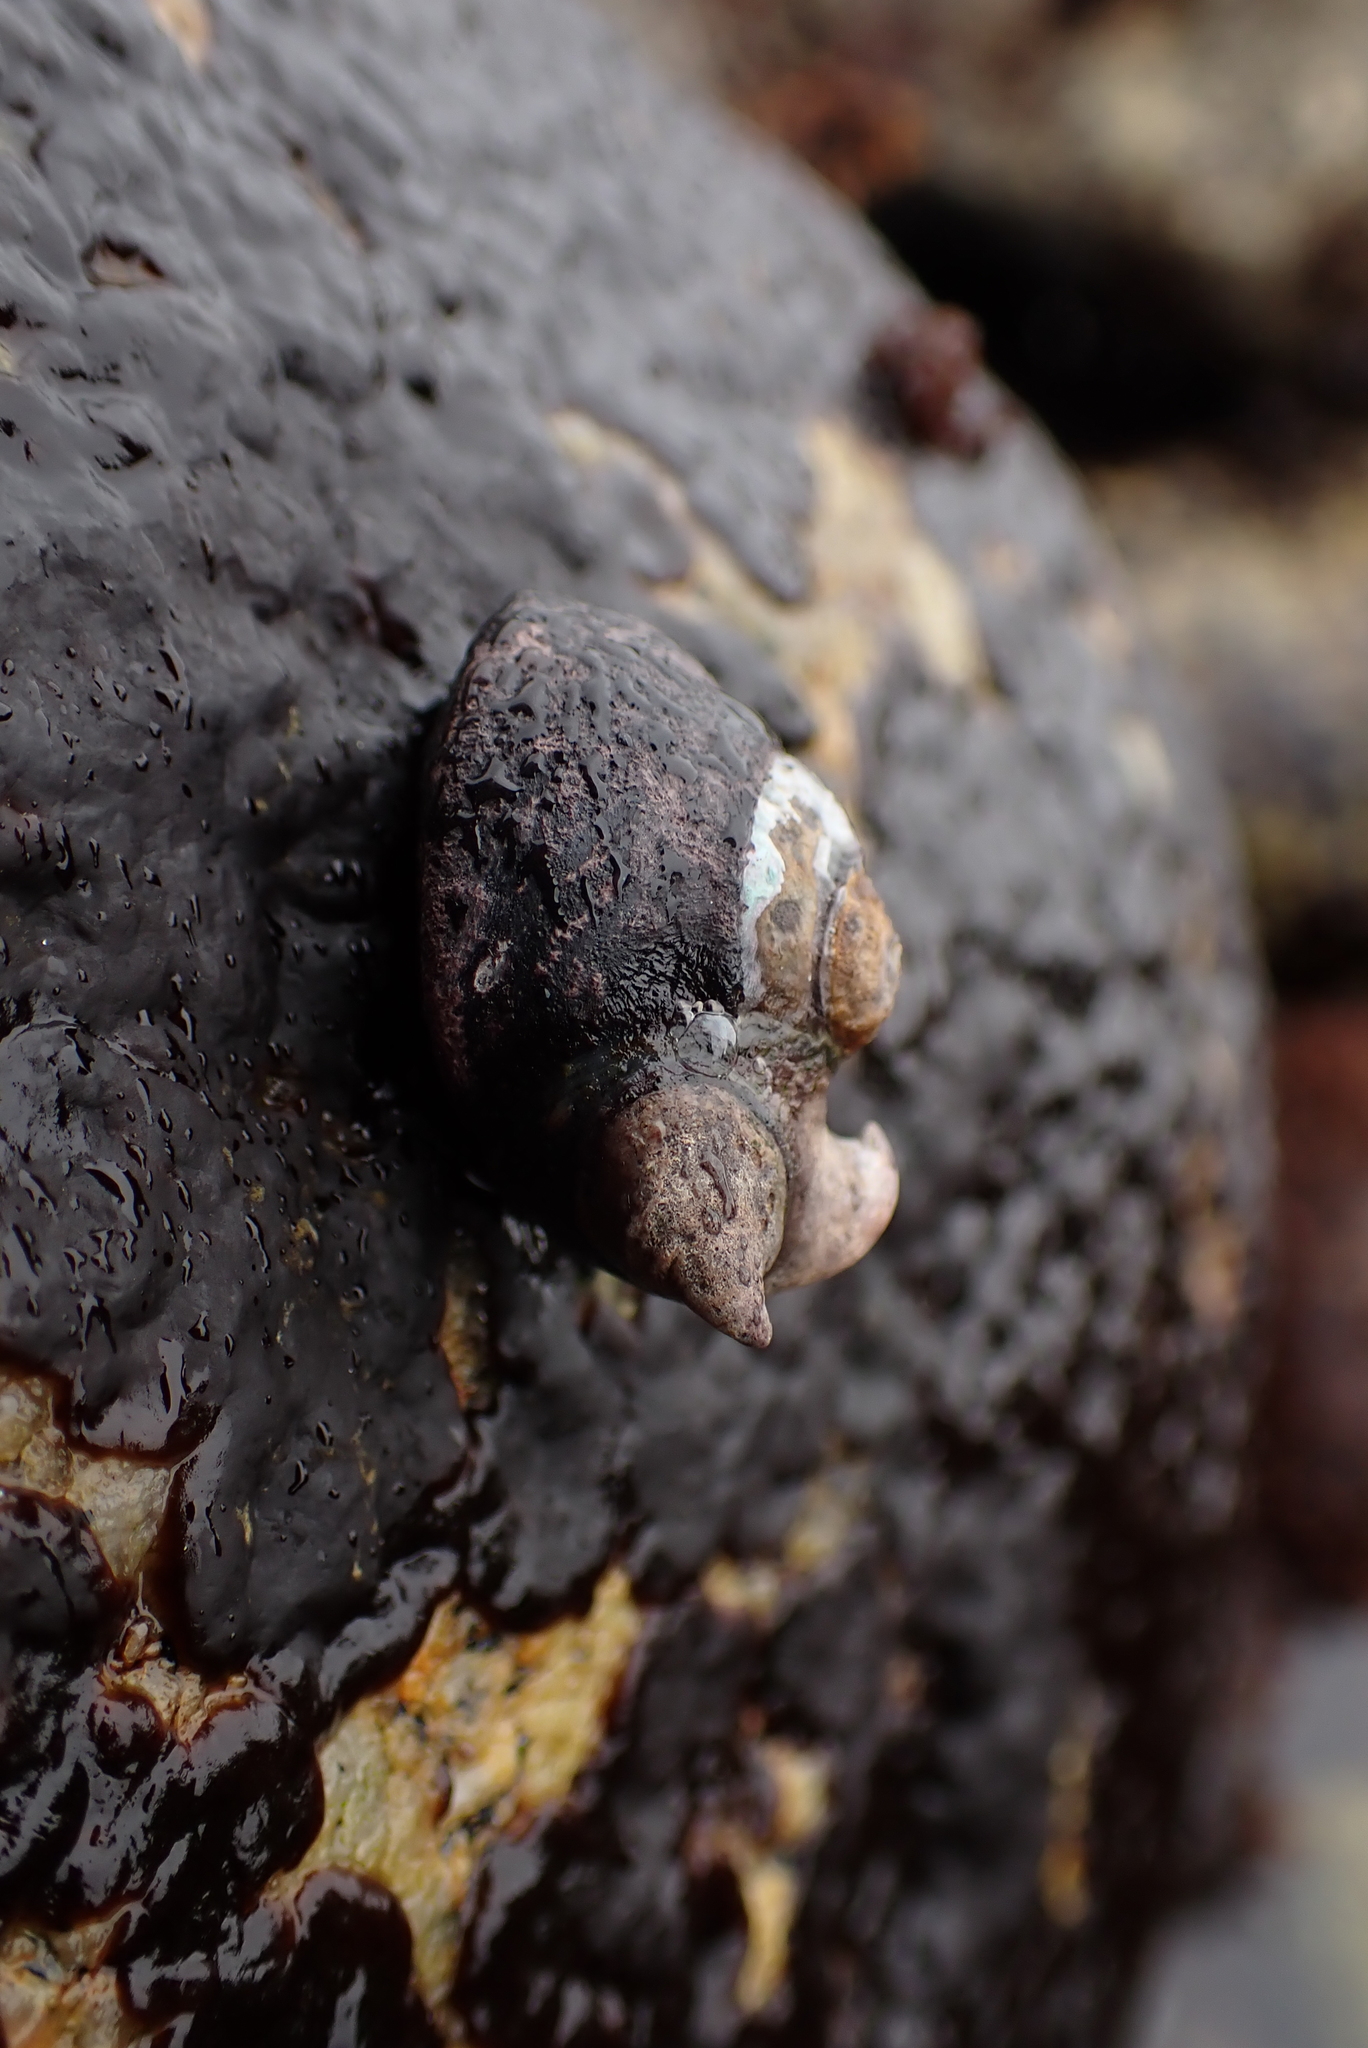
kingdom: Animalia
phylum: Mollusca
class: Gastropoda
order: Trochida
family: Tegulidae
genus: Tegula
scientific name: Tegula funebralis
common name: Black tegula
